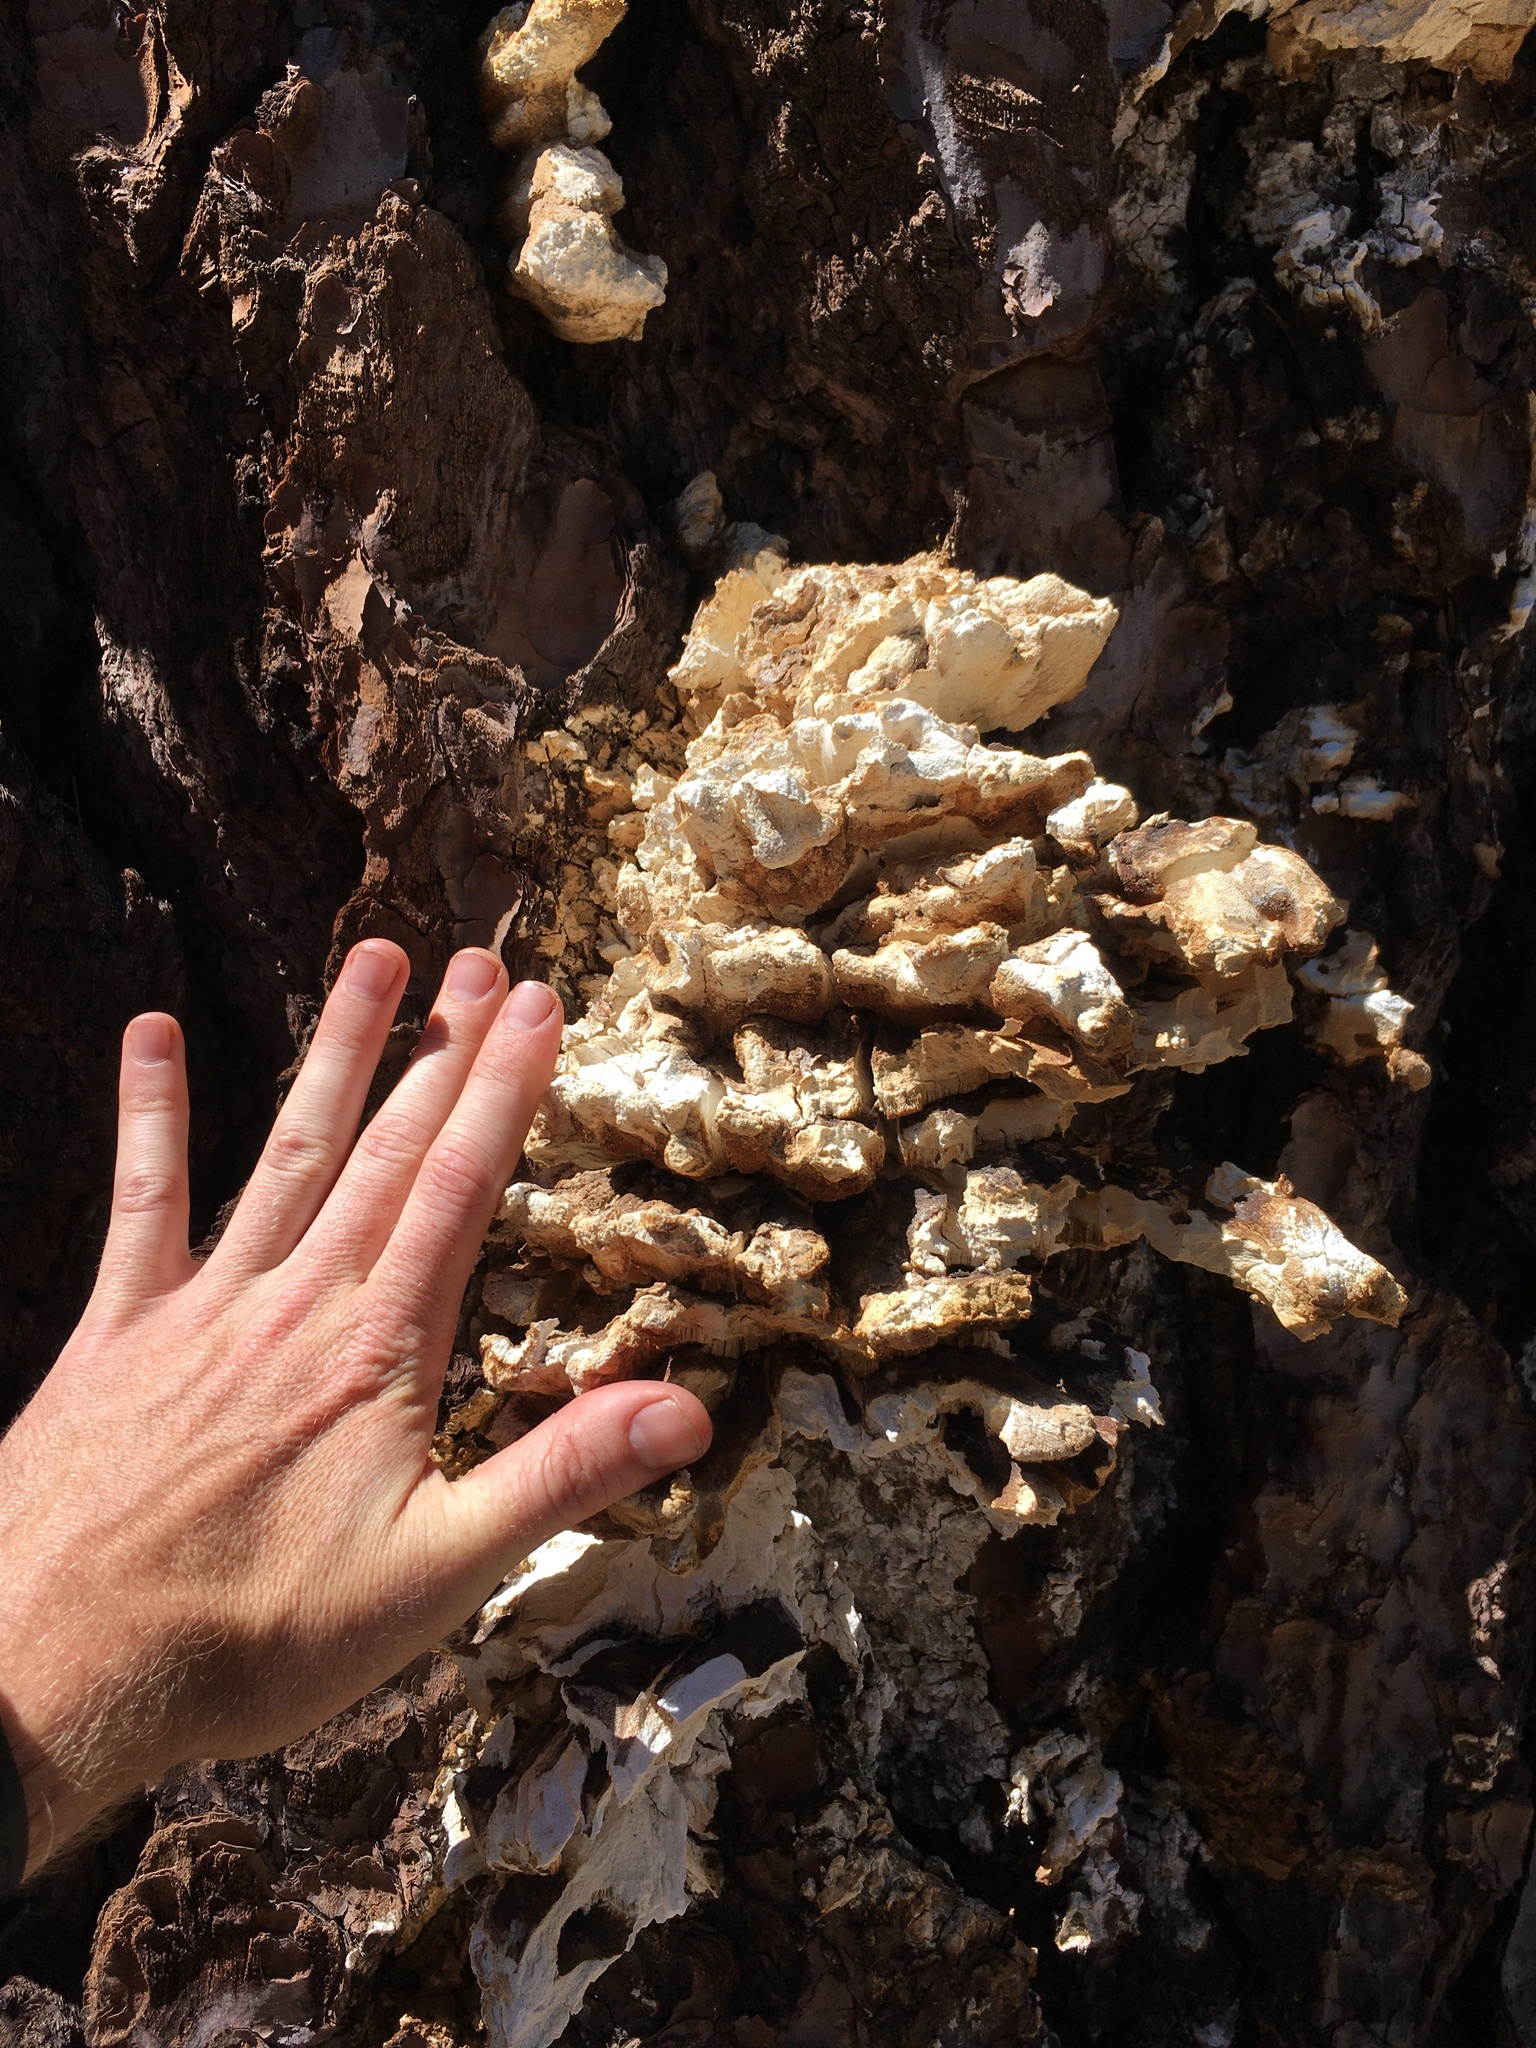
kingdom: Fungi
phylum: Basidiomycota
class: Agaricomycetes
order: Polyporales
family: Laetiporaceae
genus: Laetiporus
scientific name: Laetiporus conifericola
